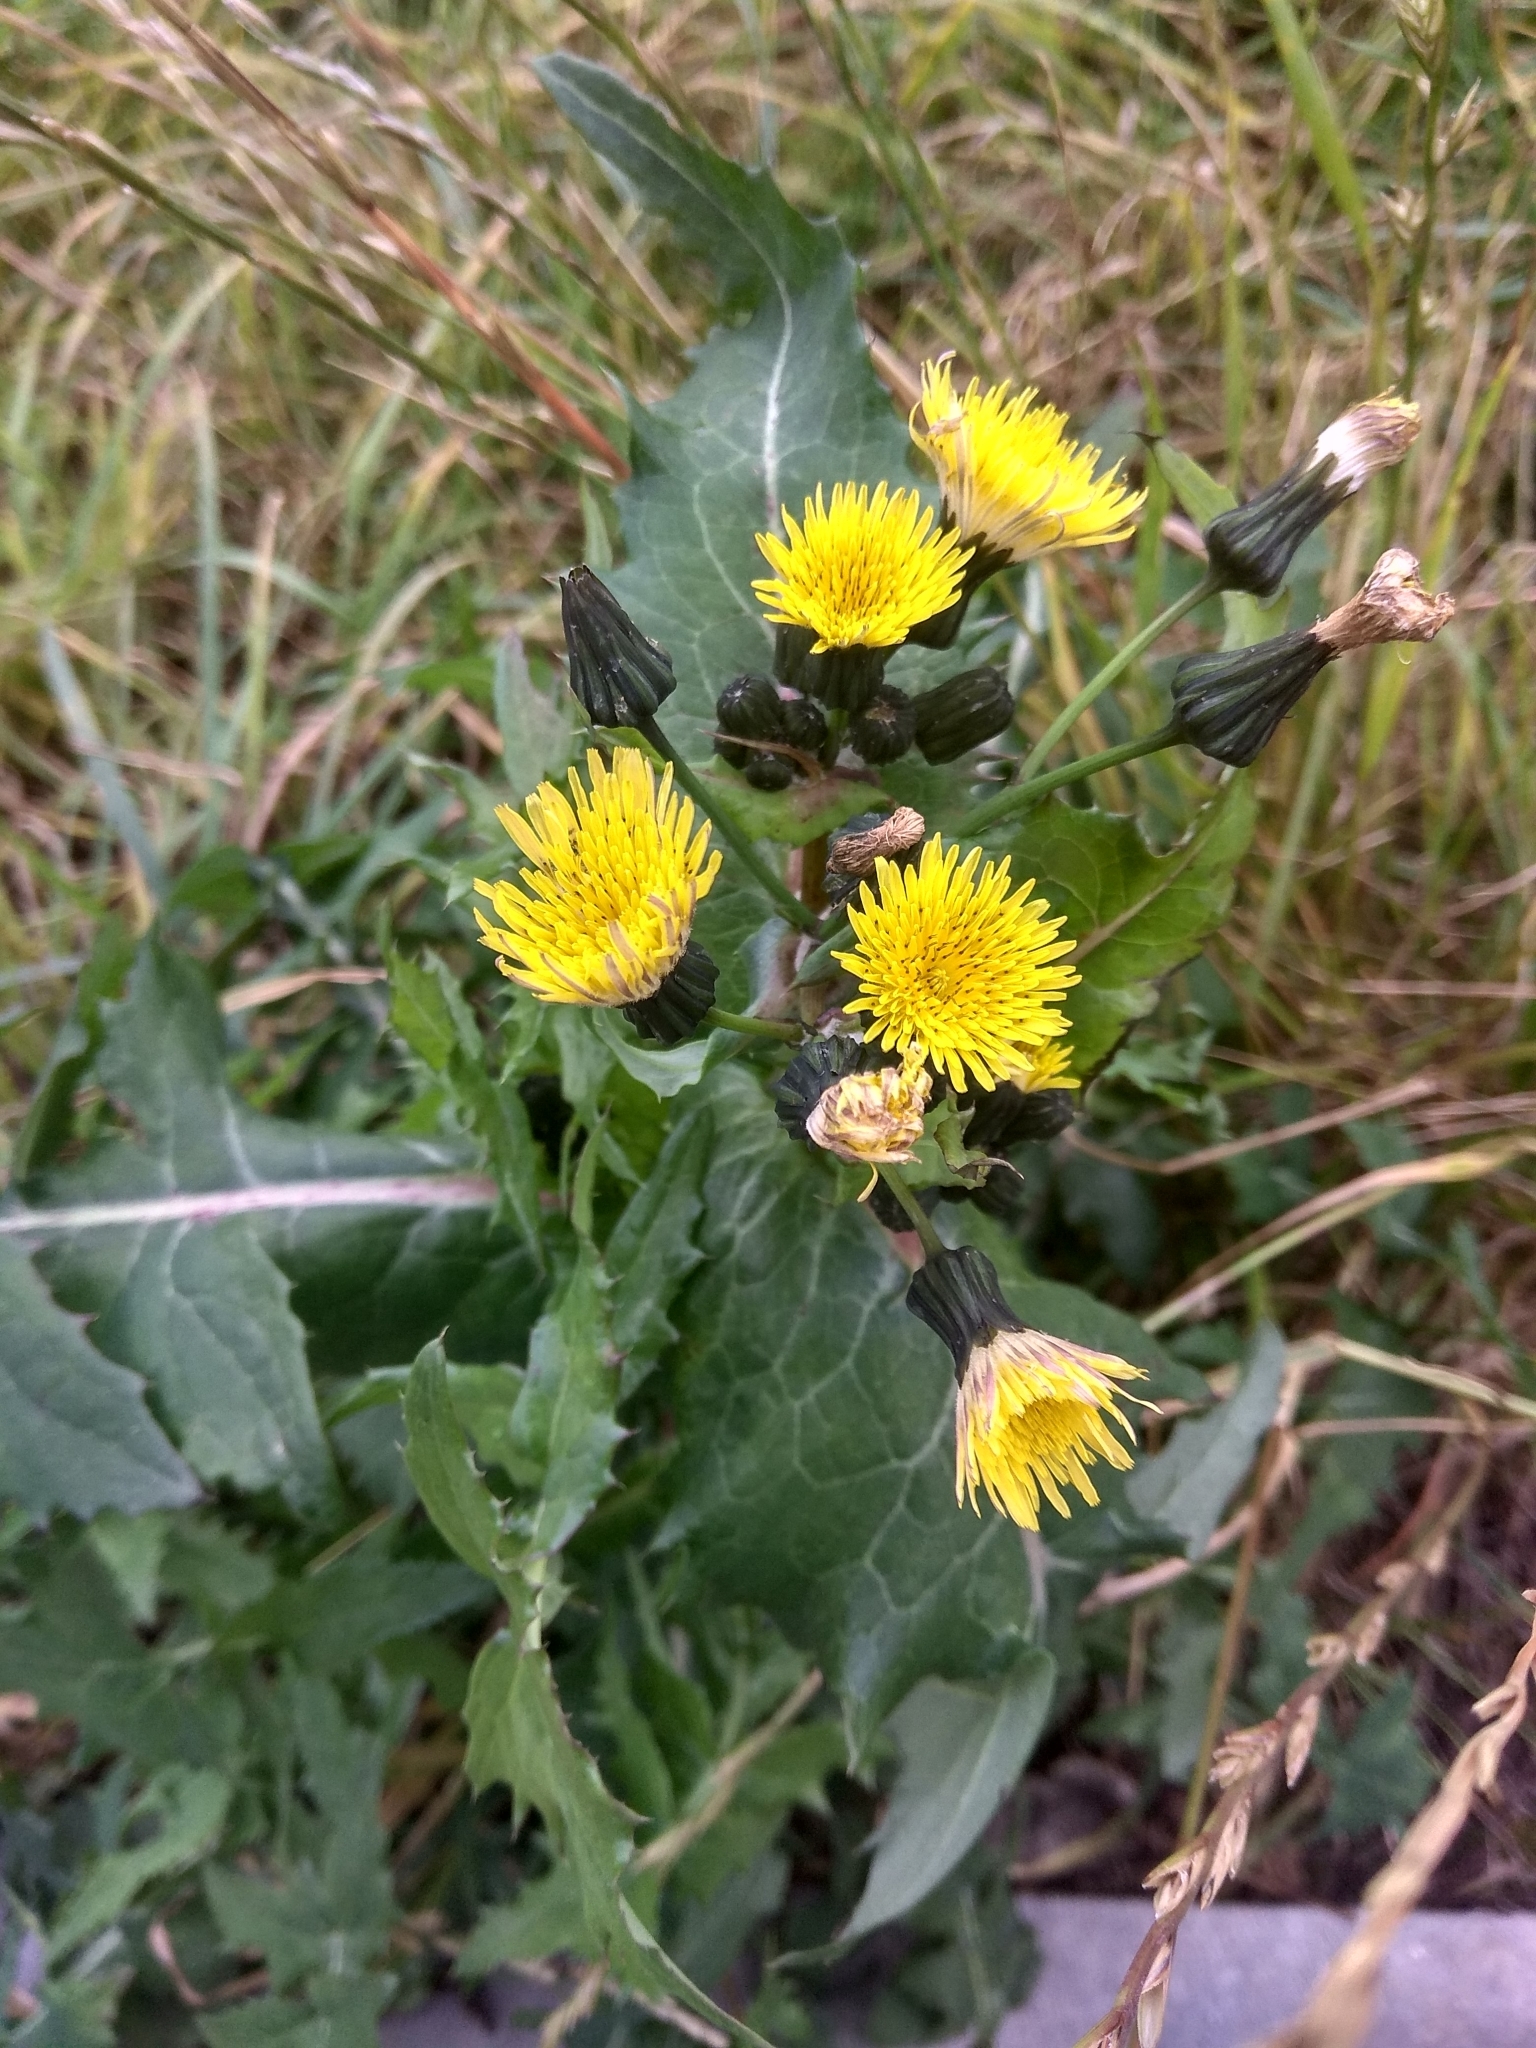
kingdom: Plantae
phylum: Tracheophyta
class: Magnoliopsida
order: Asterales
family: Asteraceae
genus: Sonchus
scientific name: Sonchus oleraceus
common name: Common sowthistle
